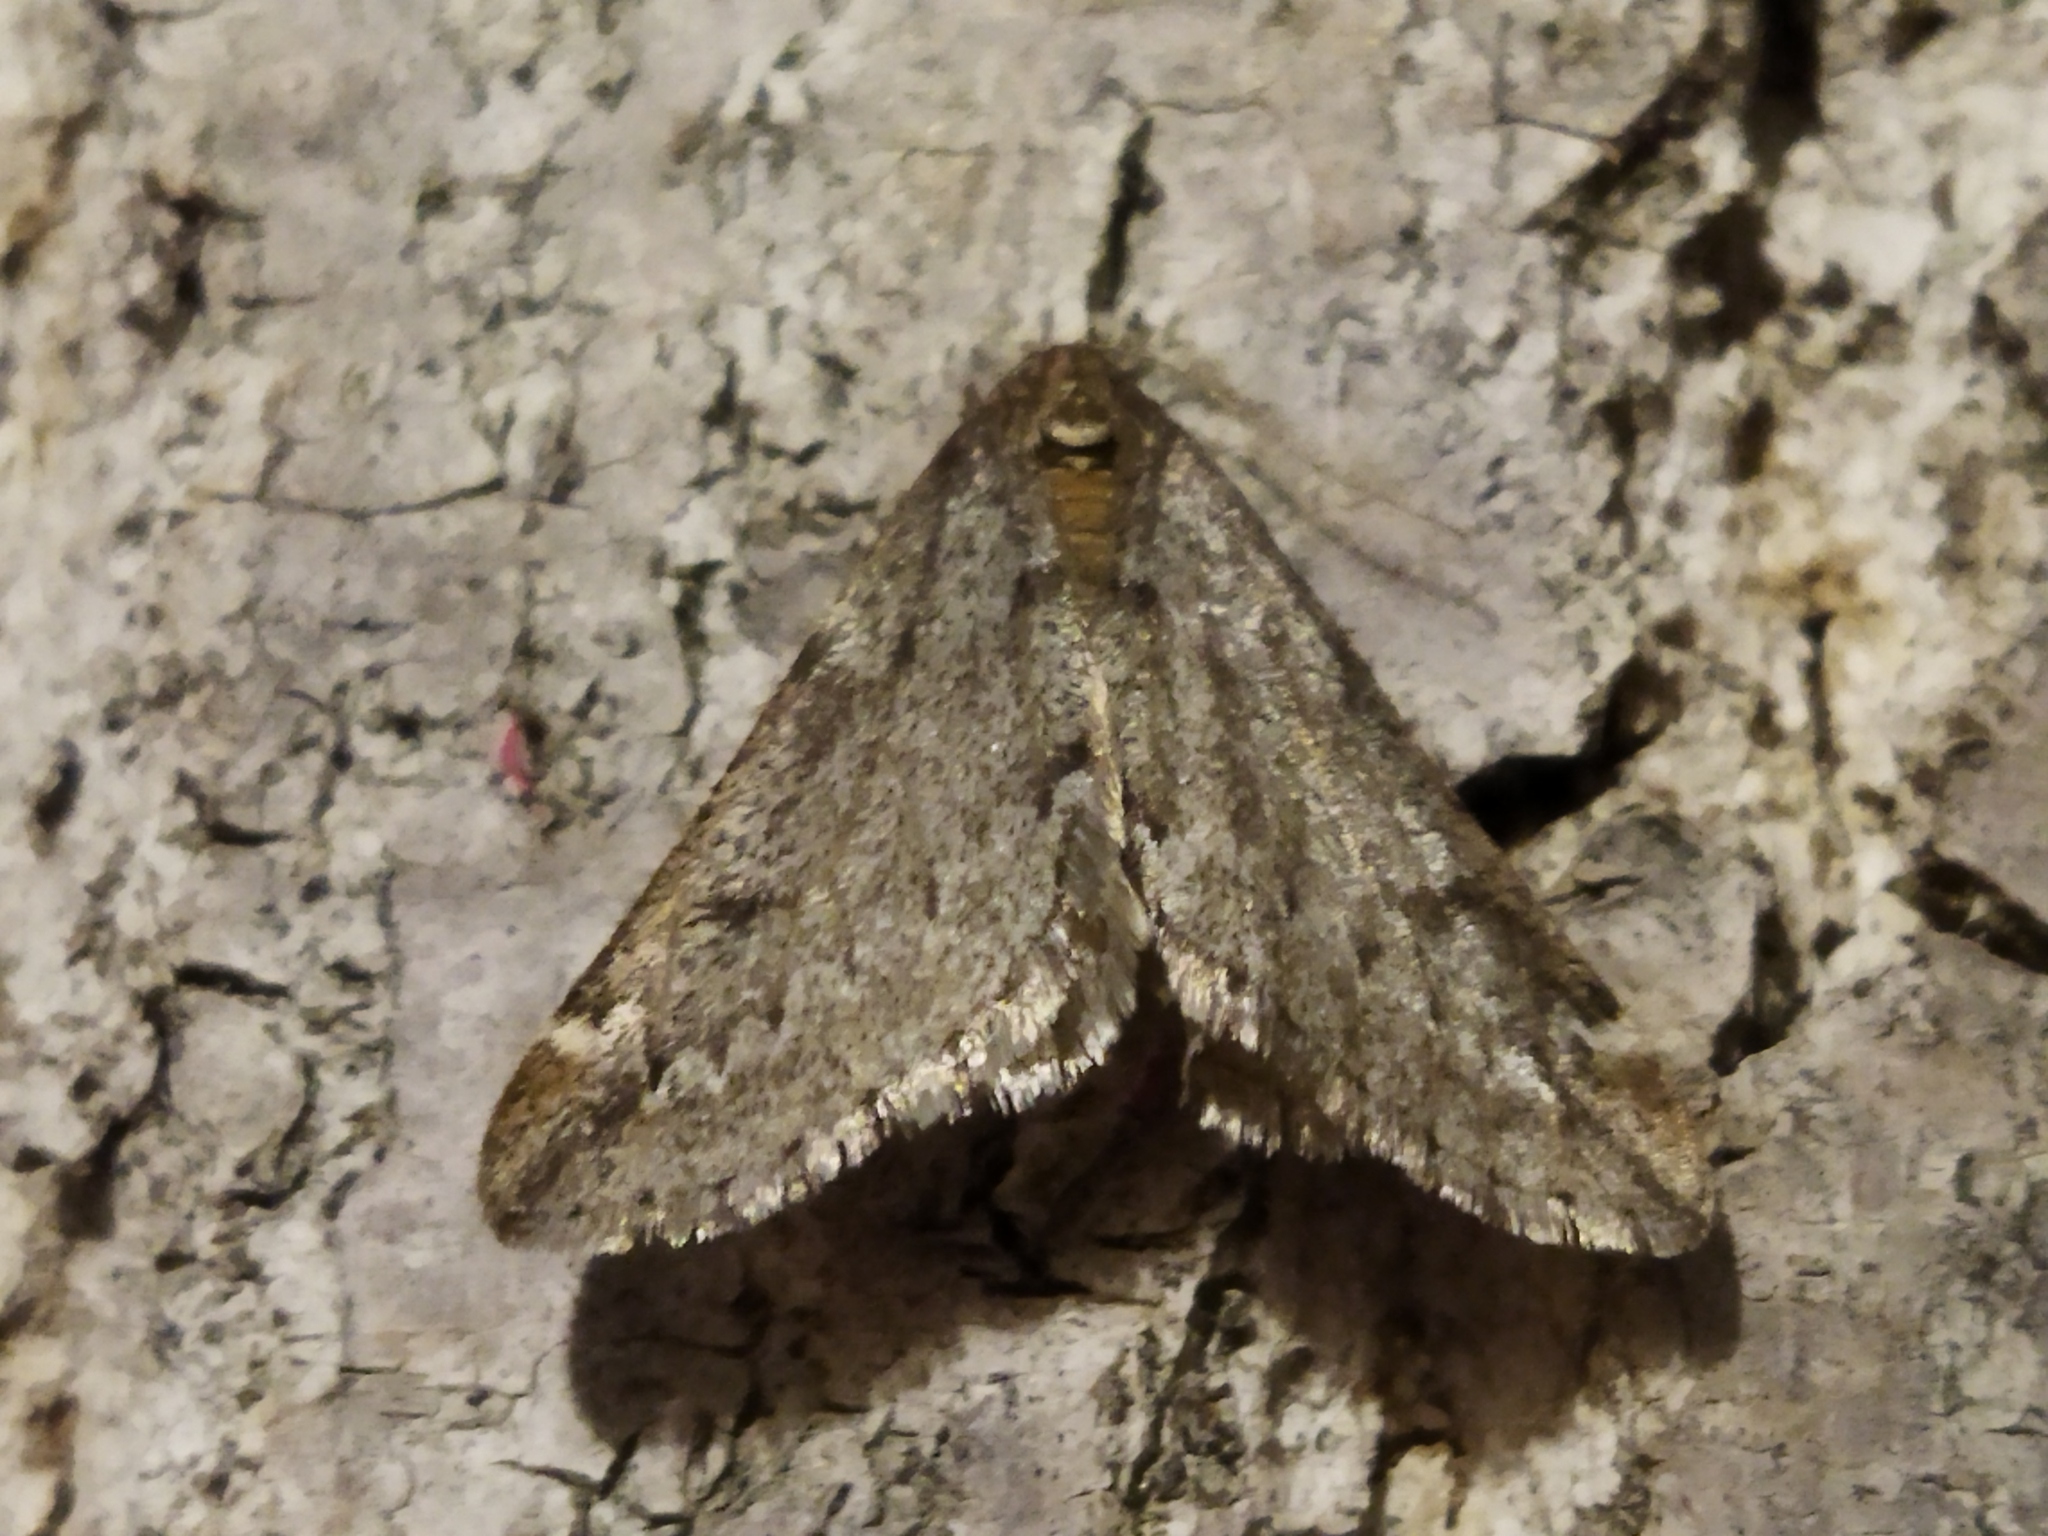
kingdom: Animalia
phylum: Arthropoda
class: Insecta
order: Lepidoptera
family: Geometridae
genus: Alsophila
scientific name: Alsophila aescularia
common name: March moth
